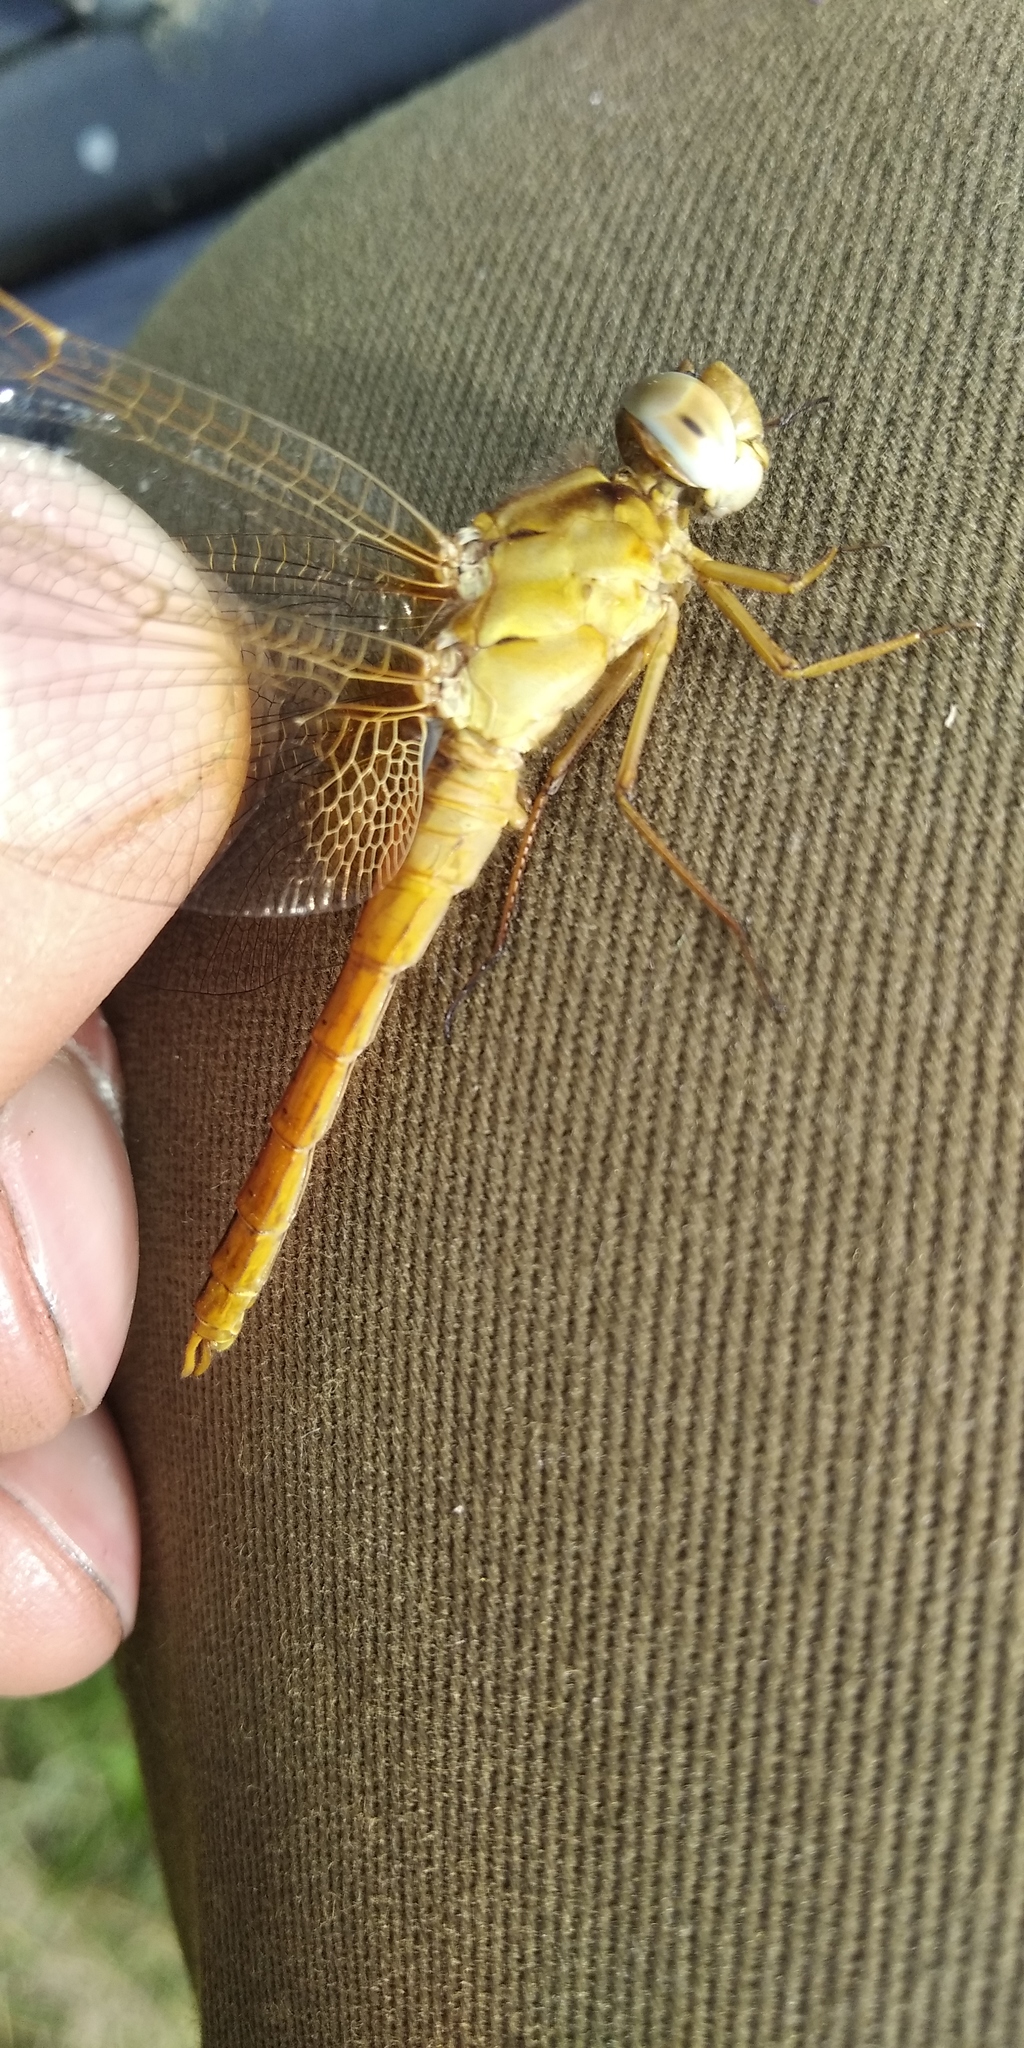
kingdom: Animalia
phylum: Arthropoda
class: Insecta
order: Odonata
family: Libellulidae
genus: Crocothemis
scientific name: Crocothemis erythraea
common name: Scarlet dragonfly
